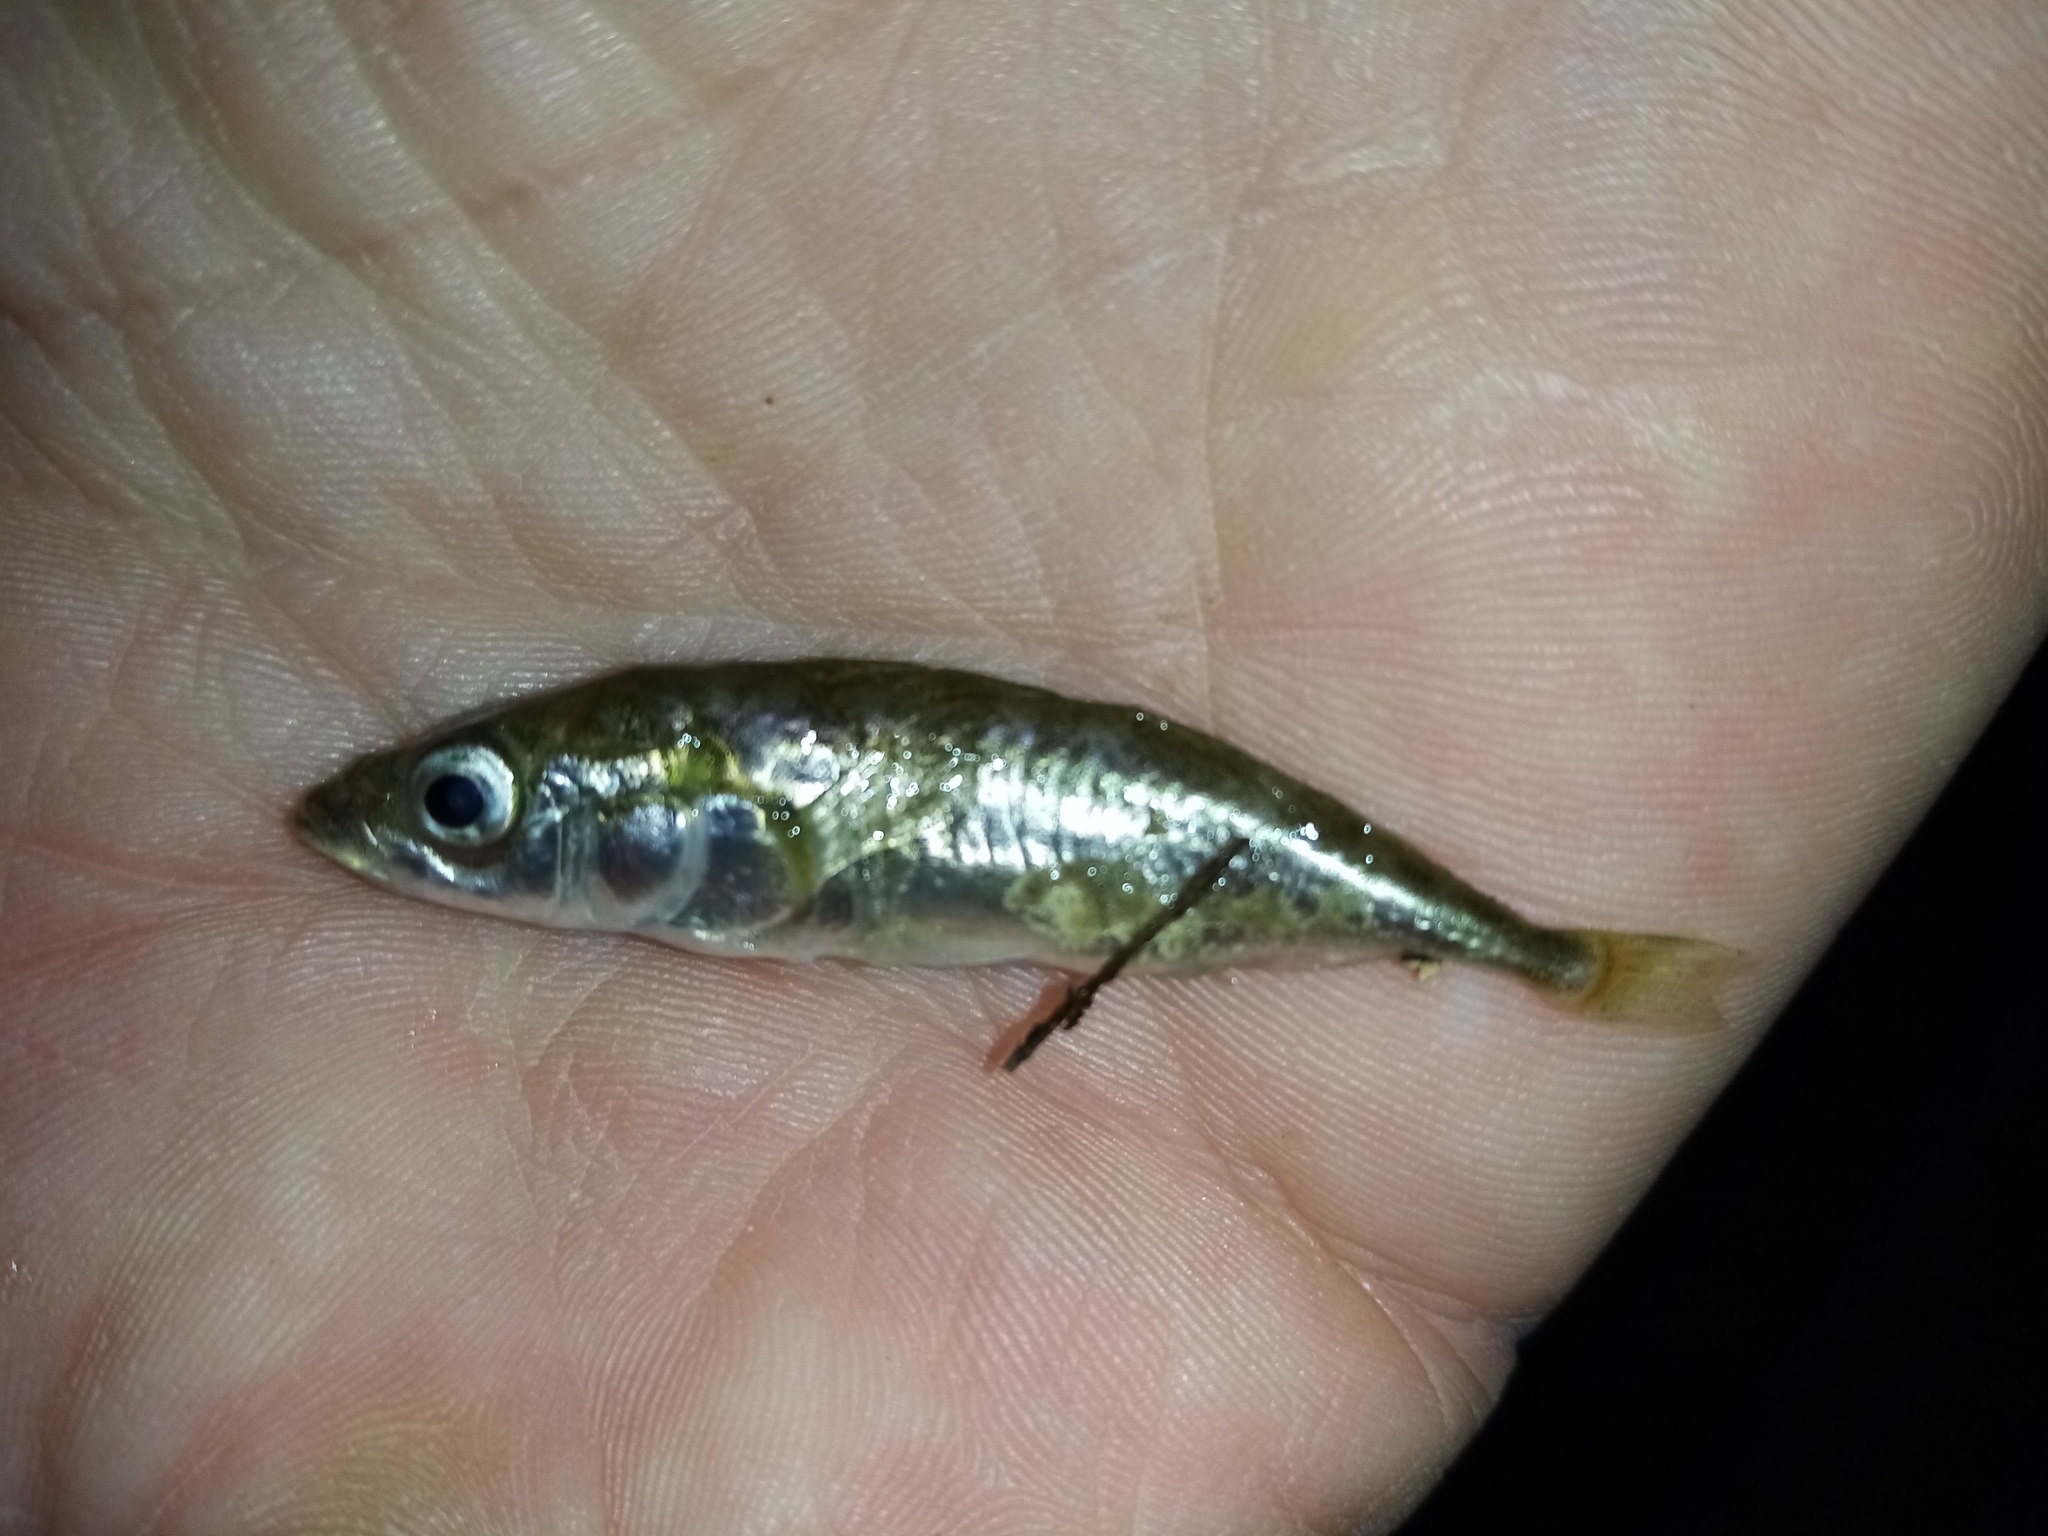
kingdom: Animalia
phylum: Chordata
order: Gasterosteiformes
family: Gasterosteidae
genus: Gasterosteus
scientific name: Gasterosteus aculeatus
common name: Three-spined stickleback
